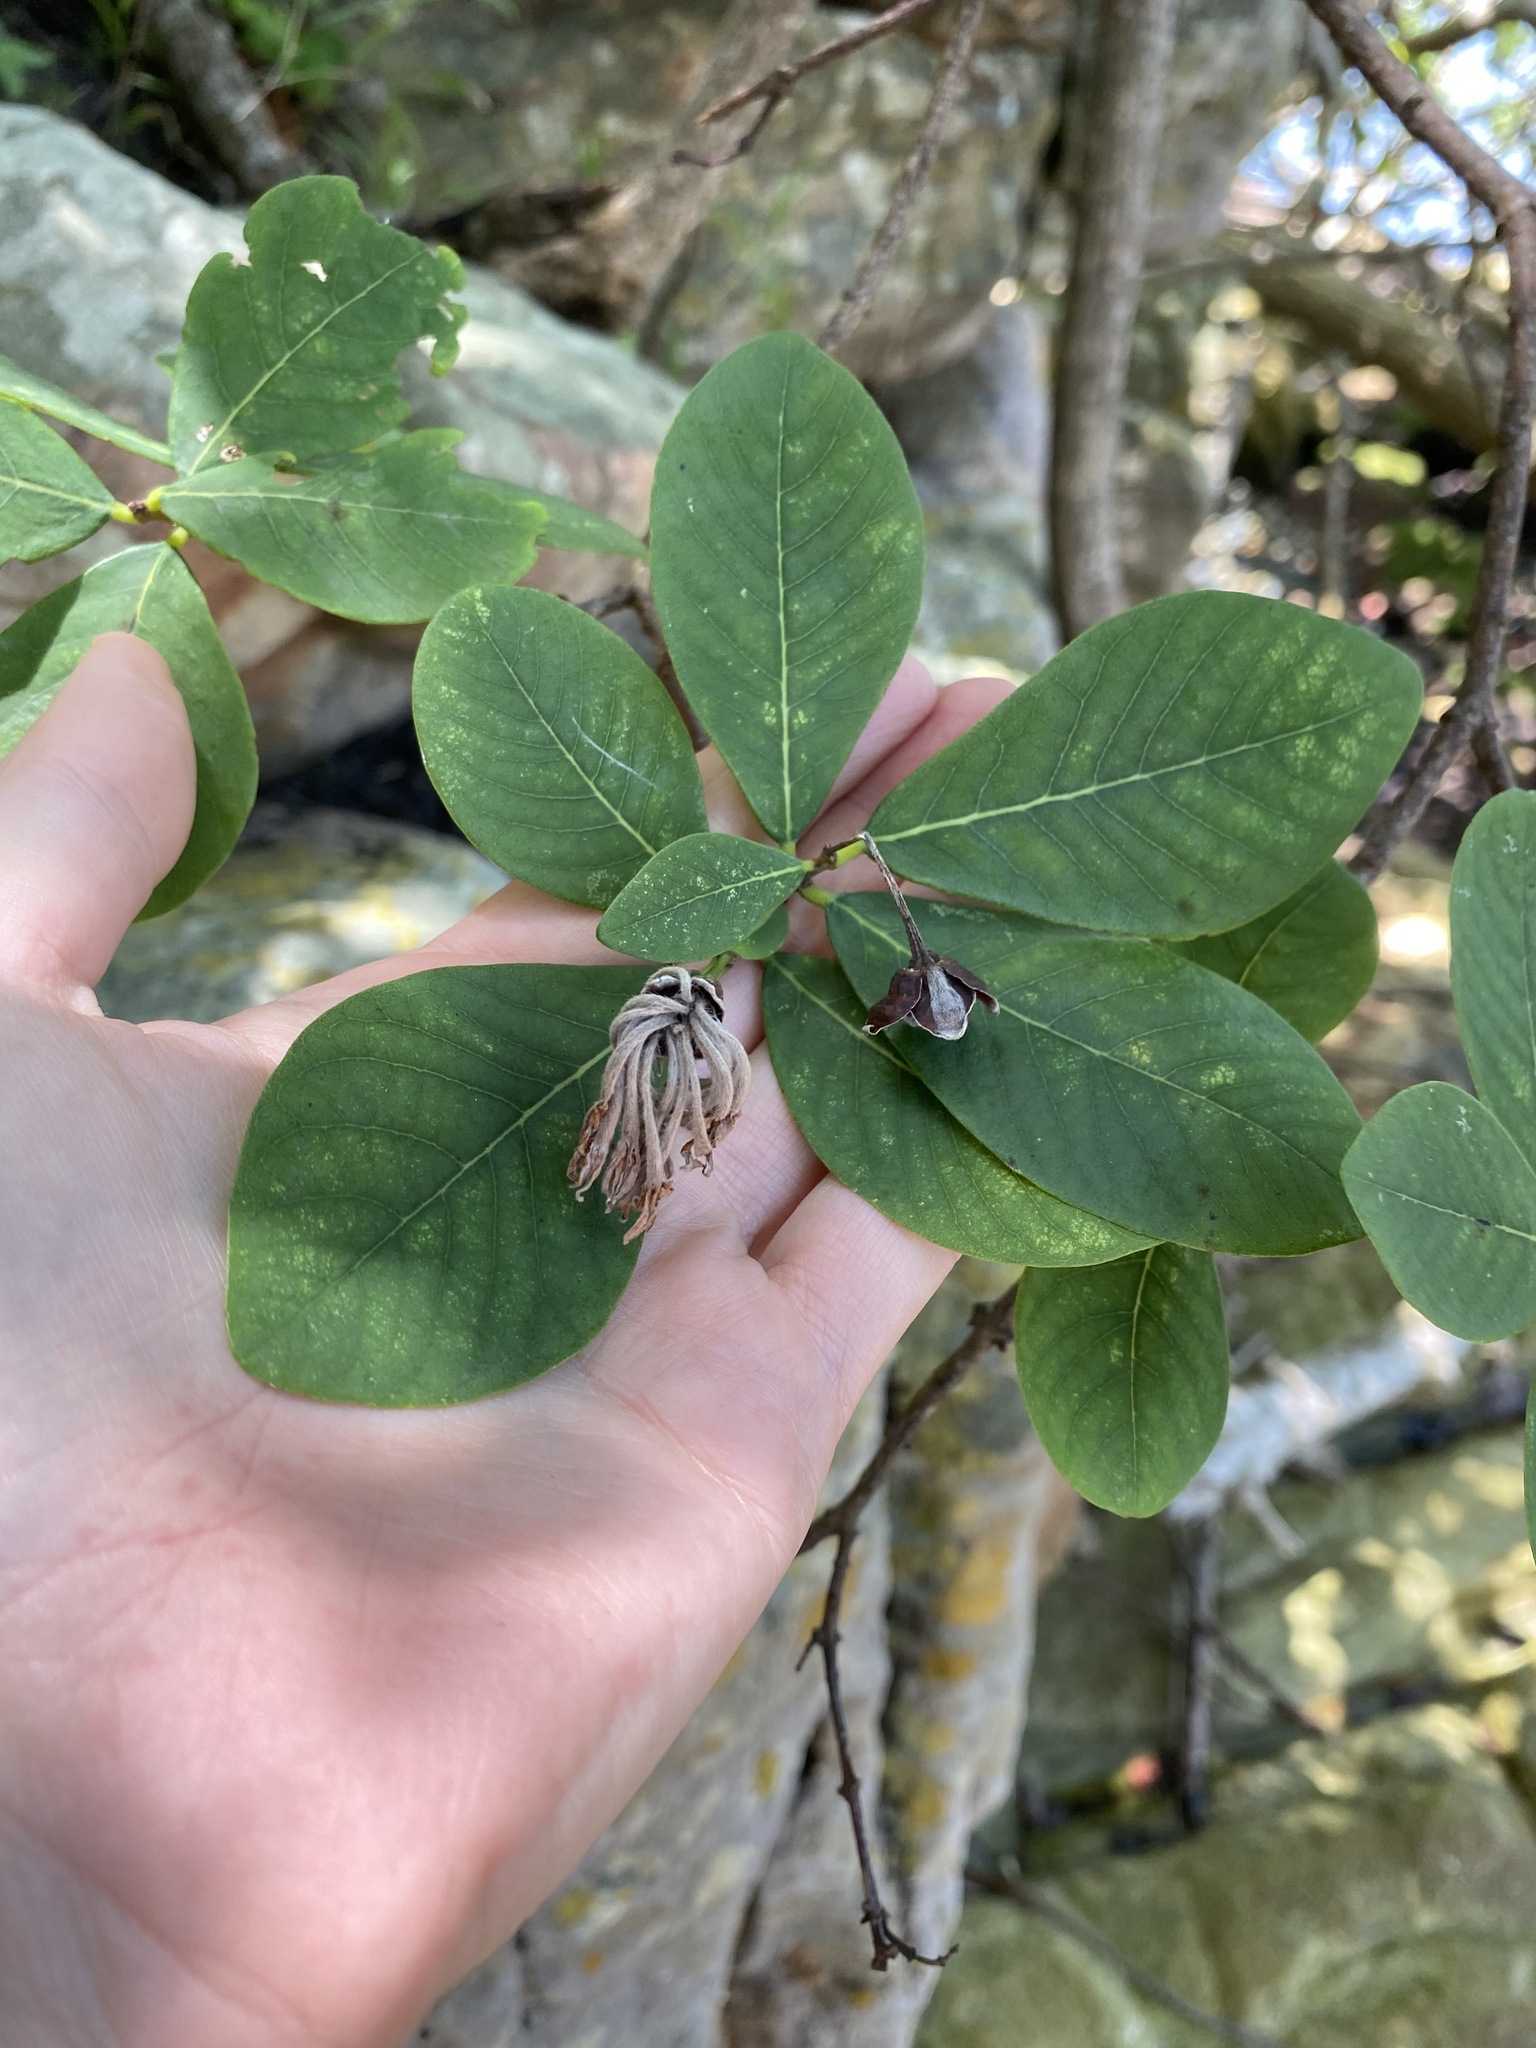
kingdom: Plantae
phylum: Tracheophyta
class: Magnoliopsida
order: Malvales
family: Thymelaeaceae
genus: Dais
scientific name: Dais cotinifolia
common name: Pompon tree
